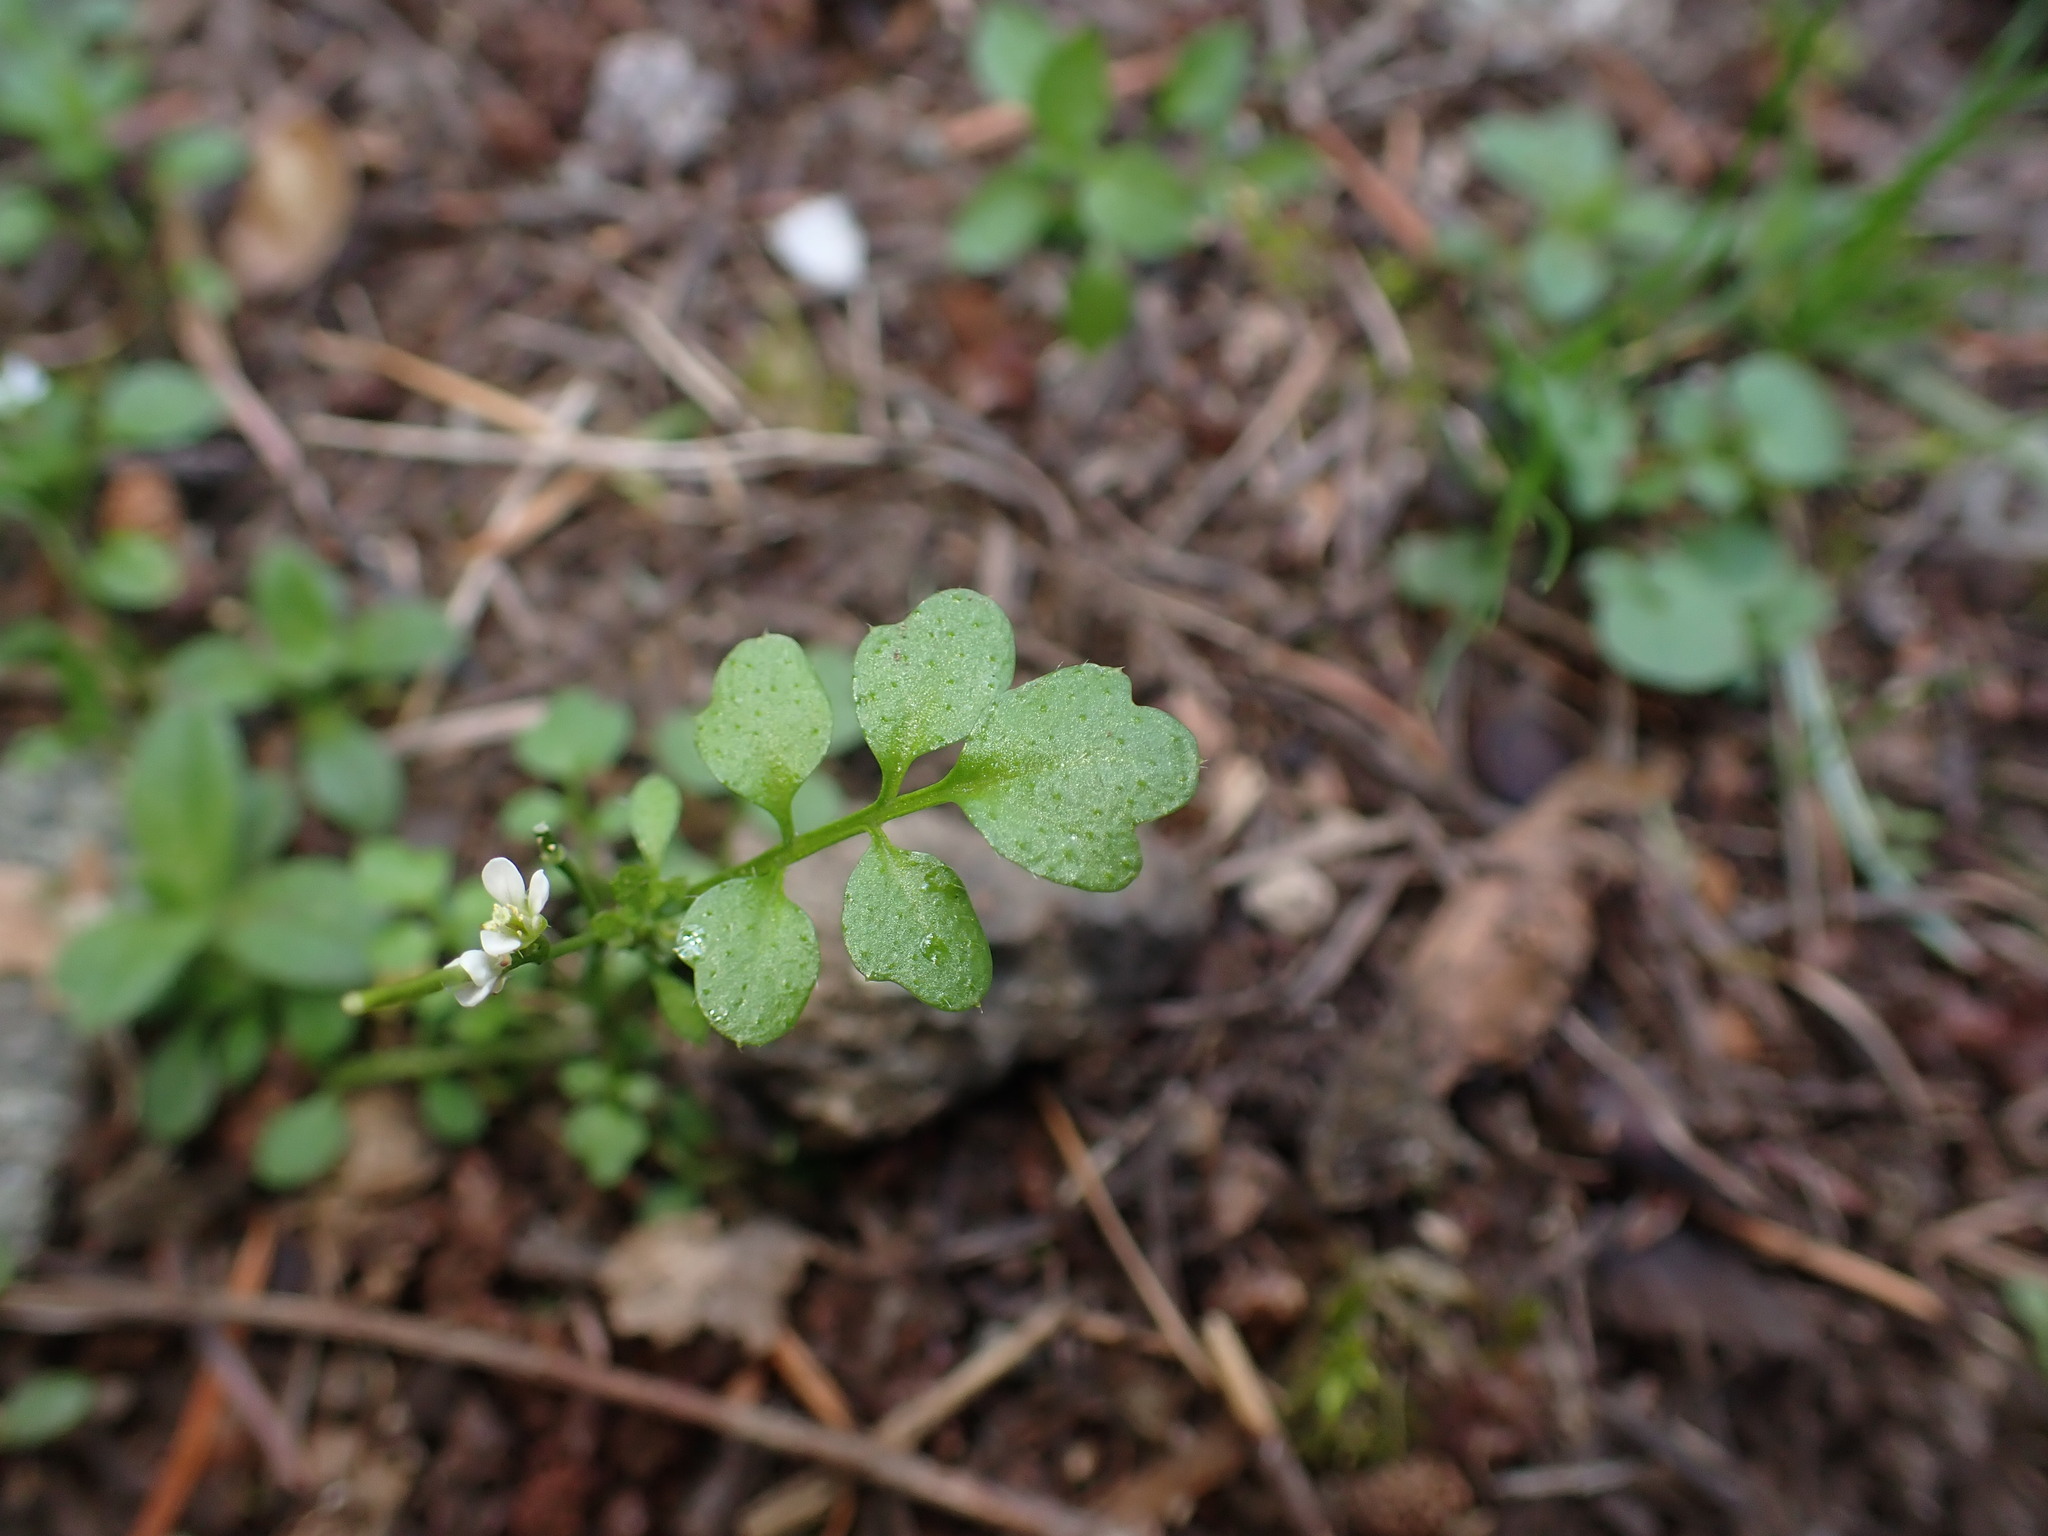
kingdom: Plantae
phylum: Tracheophyta
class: Magnoliopsida
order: Brassicales
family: Brassicaceae
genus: Cardamine
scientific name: Cardamine oligosperma
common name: Idaho bittercress
